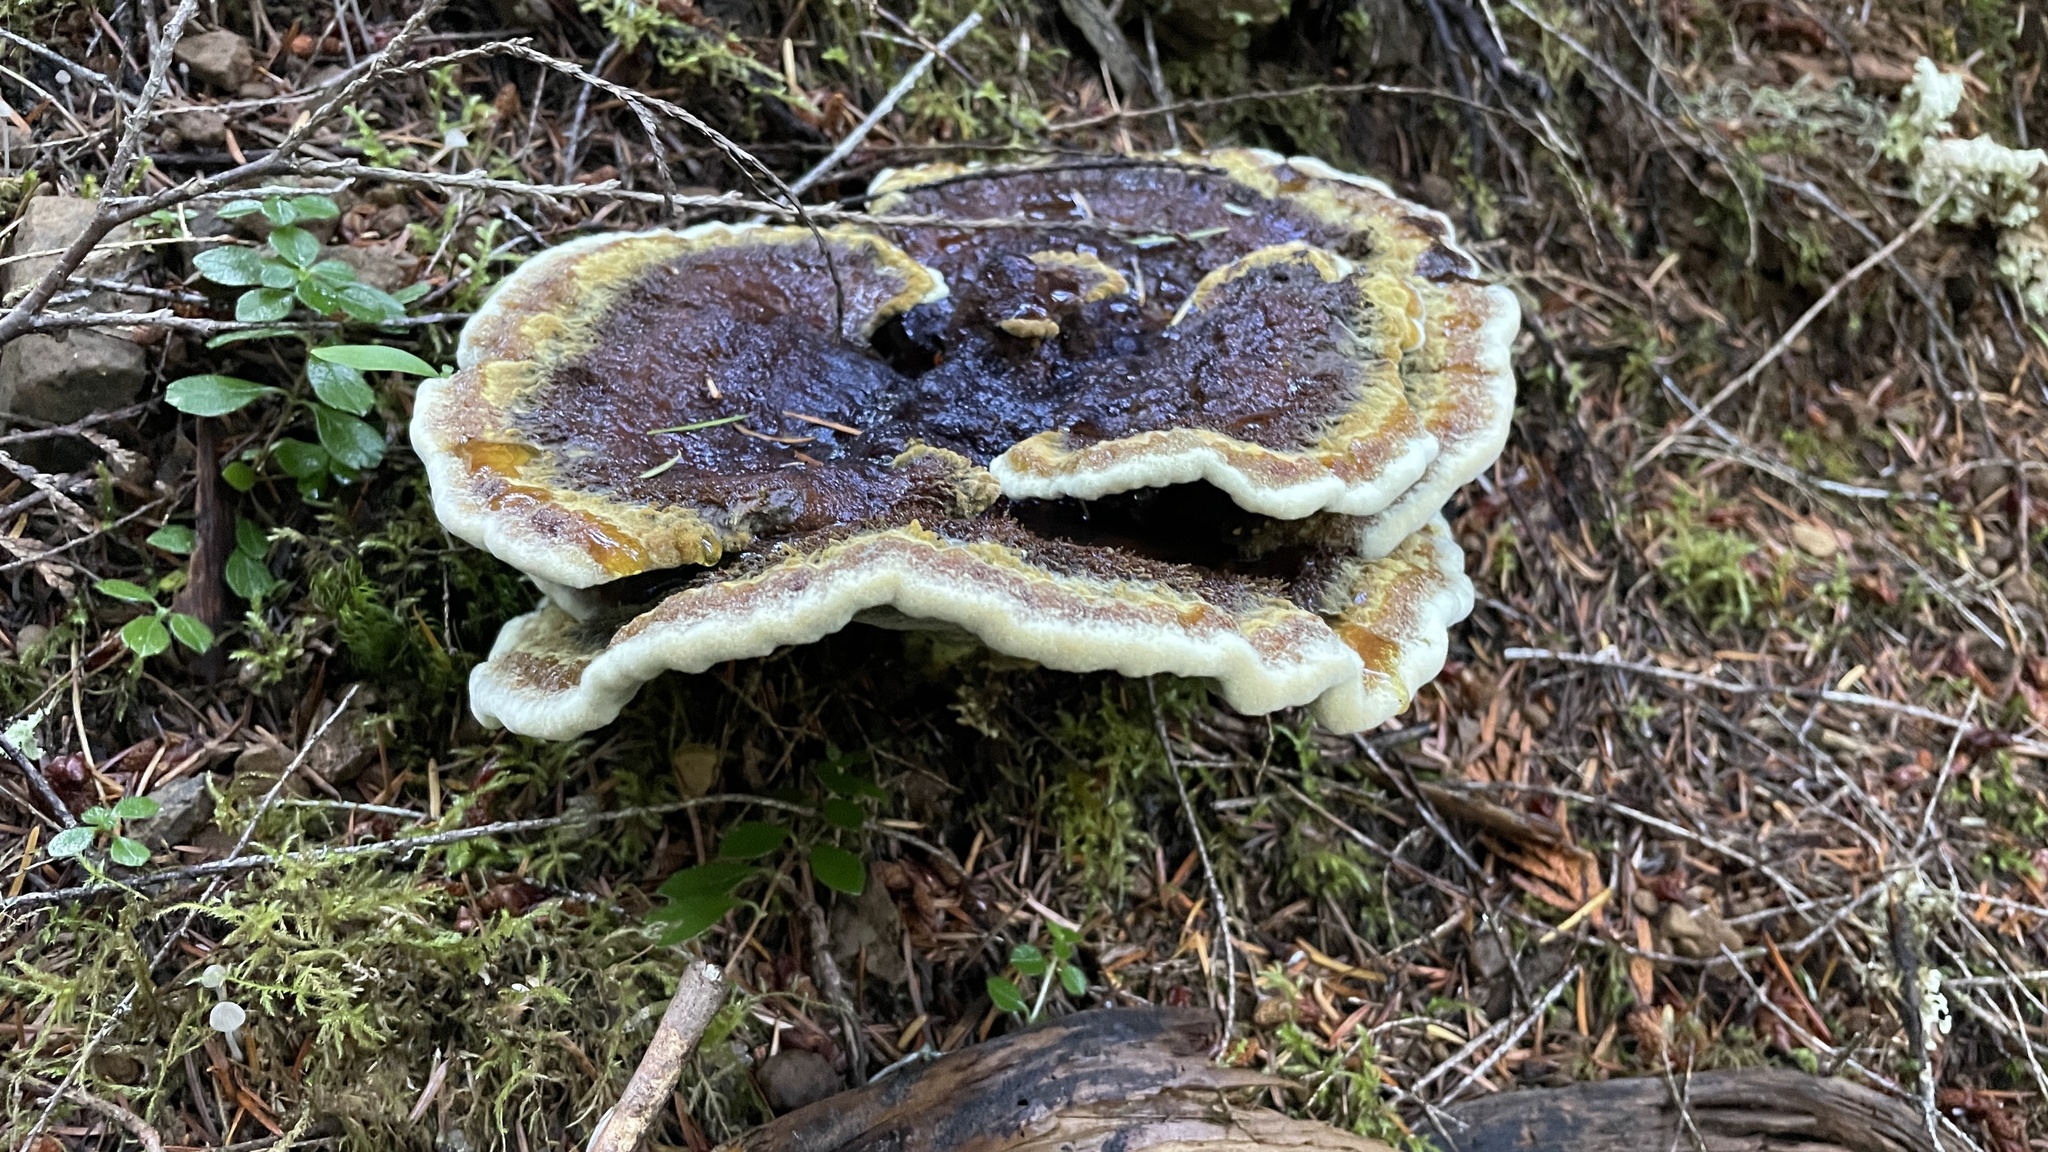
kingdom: Fungi
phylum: Basidiomycota
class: Agaricomycetes
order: Polyporales
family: Laetiporaceae
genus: Phaeolus
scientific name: Phaeolus schweinitzii
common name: Dyer's mazegill
